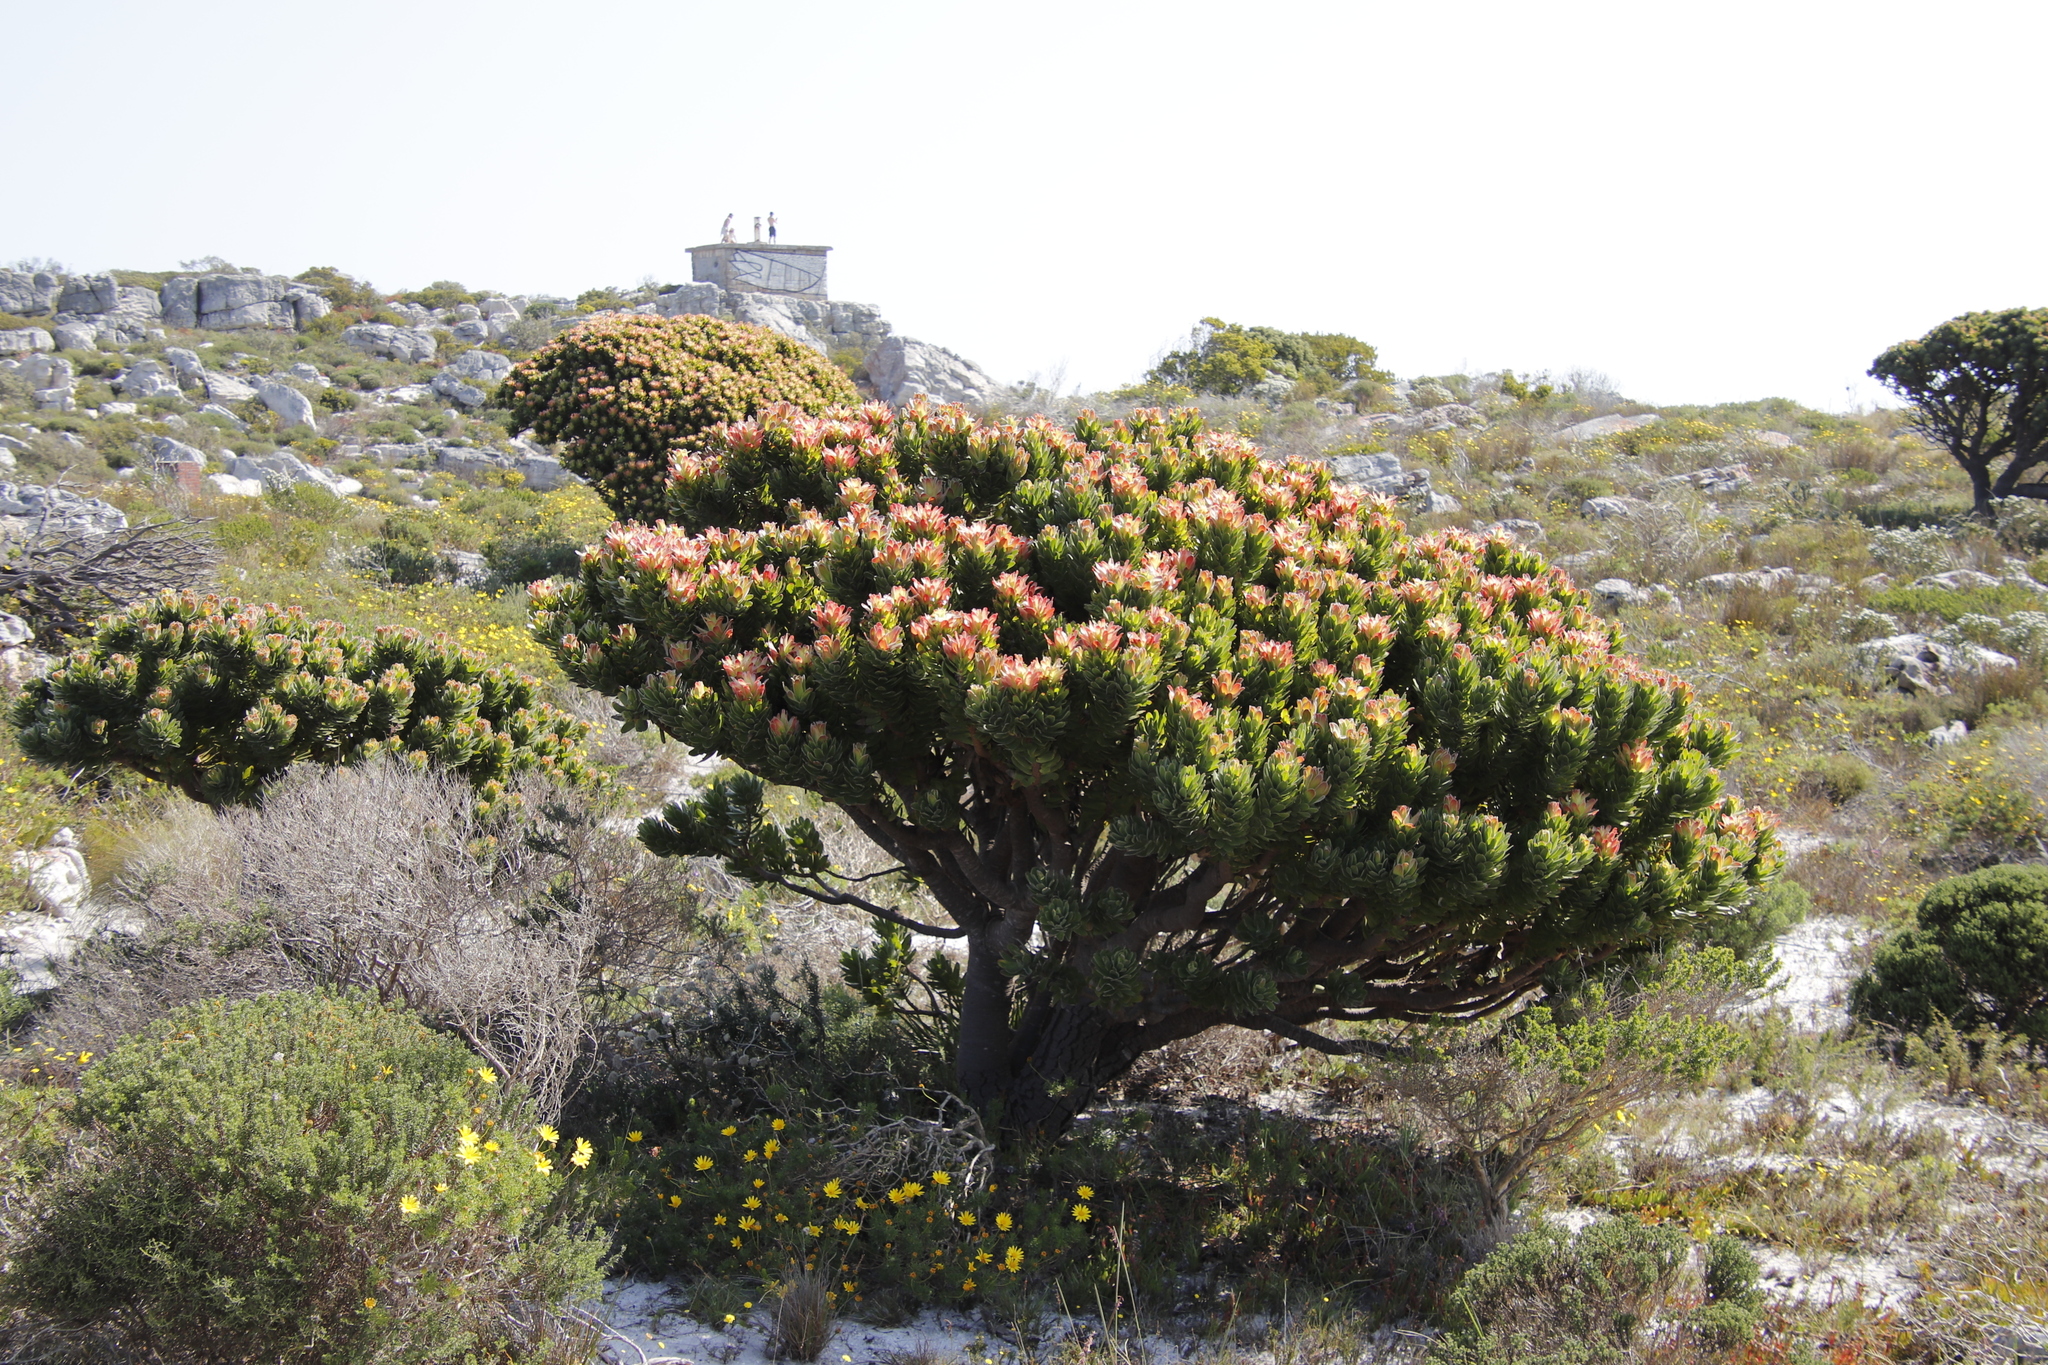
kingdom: Plantae
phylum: Tracheophyta
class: Magnoliopsida
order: Proteales
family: Proteaceae
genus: Mimetes
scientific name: Mimetes fimbriifolius
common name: Fringed bottlebrush
